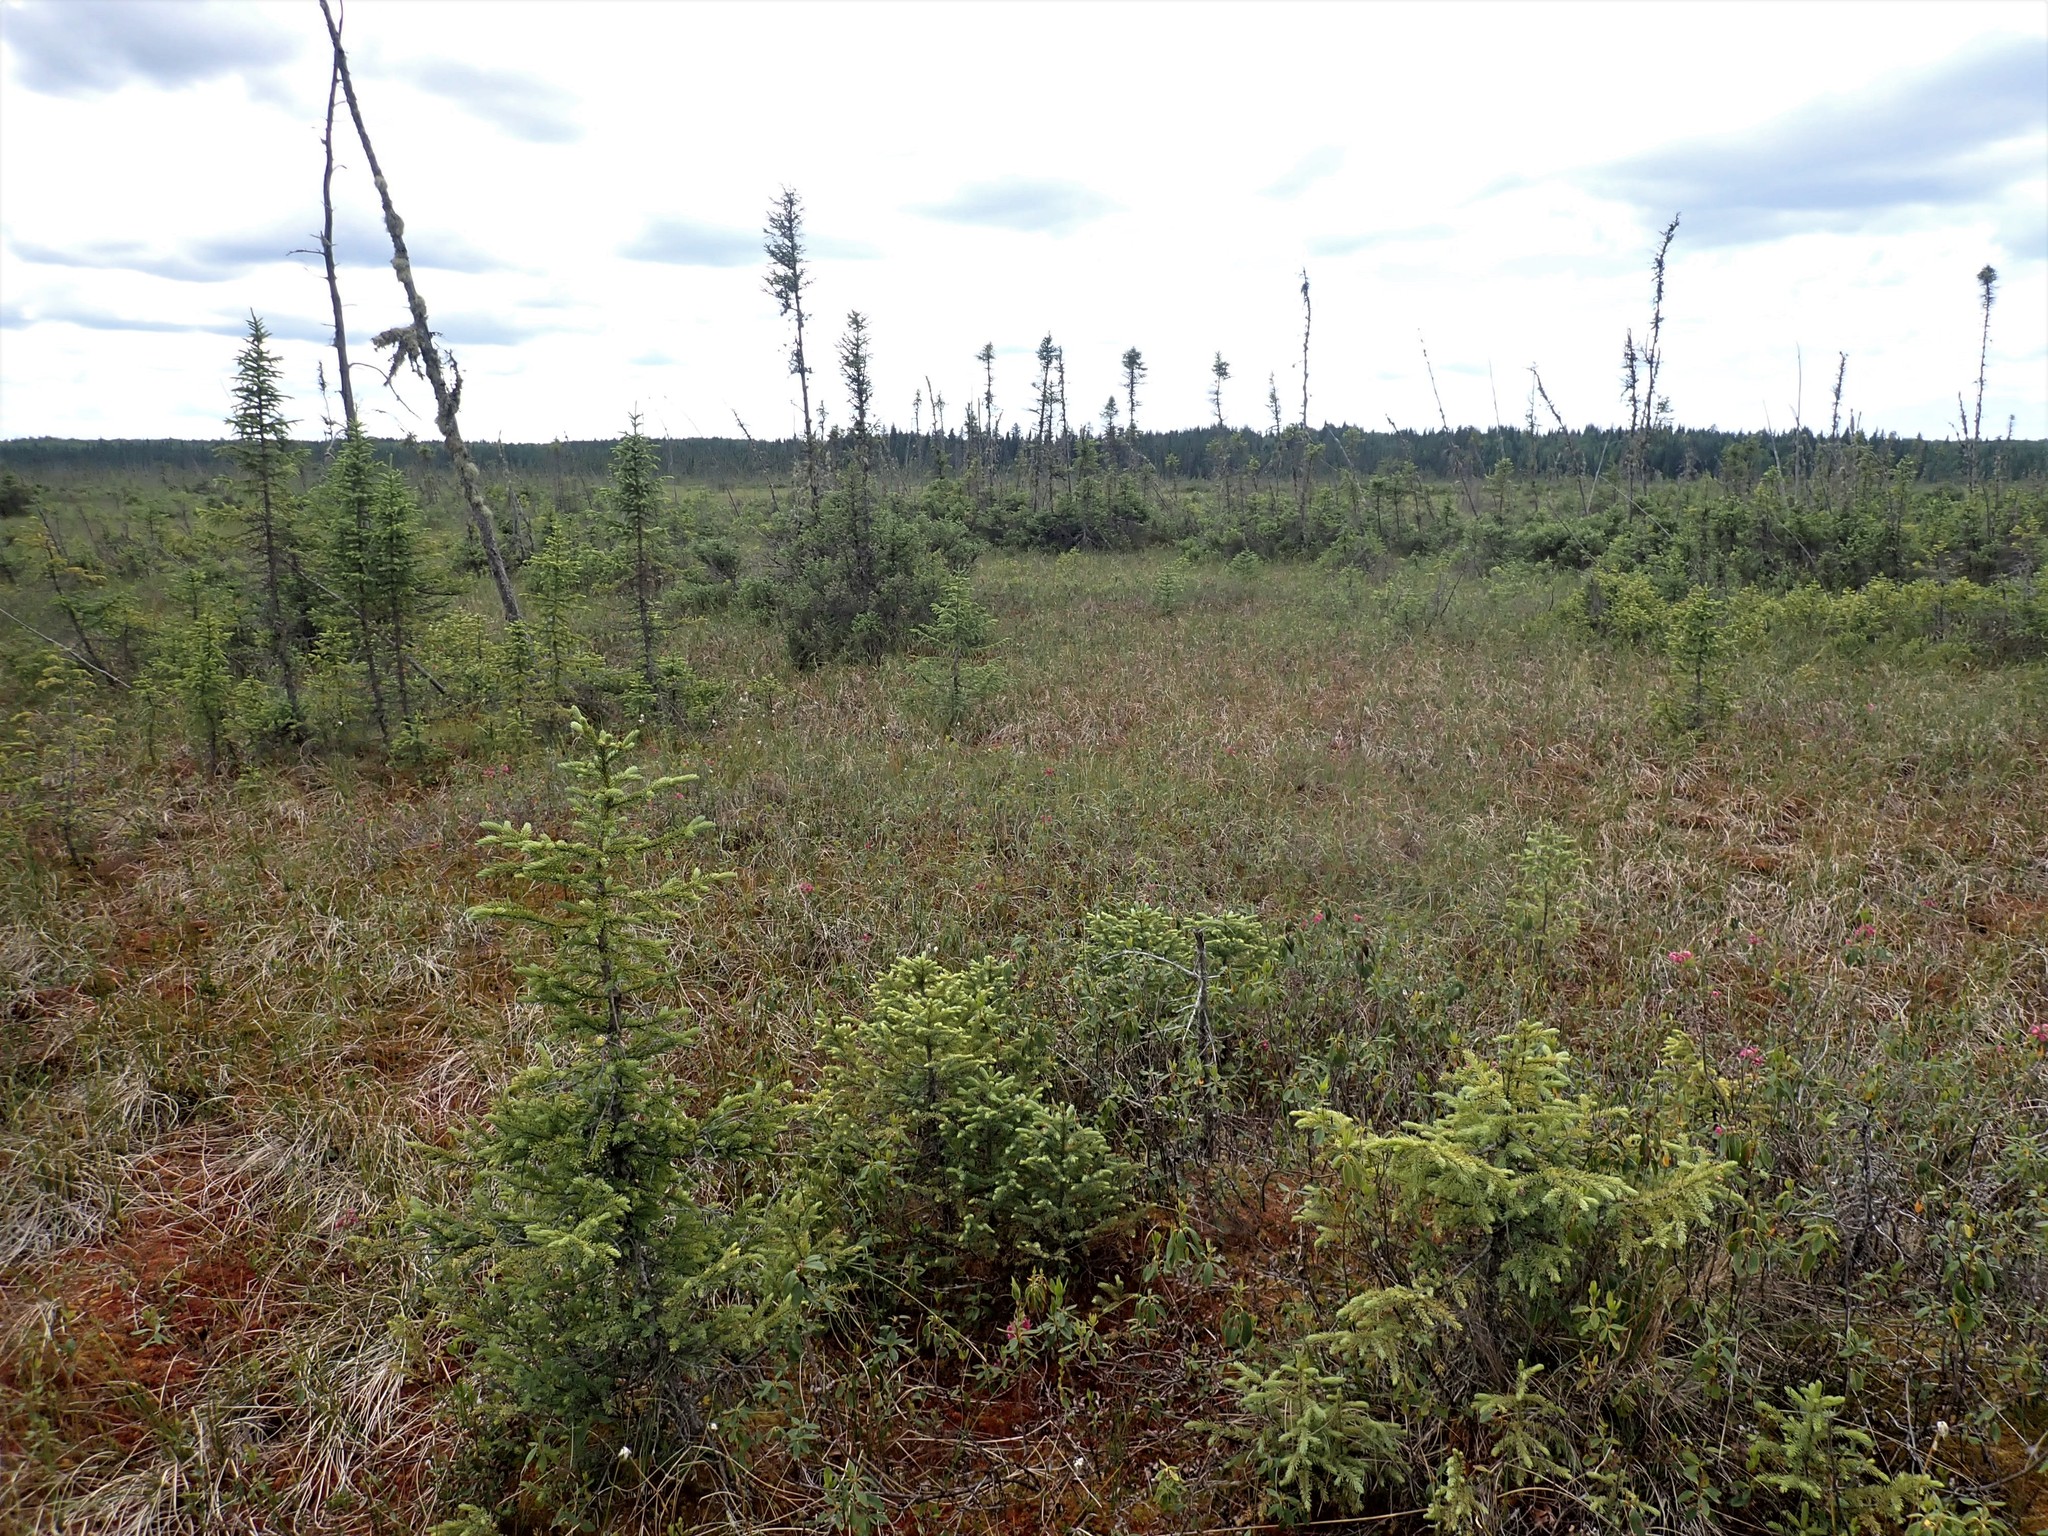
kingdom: Plantae
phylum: Tracheophyta
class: Pinopsida
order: Pinales
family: Pinaceae
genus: Picea
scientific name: Picea mariana
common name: Black spruce
